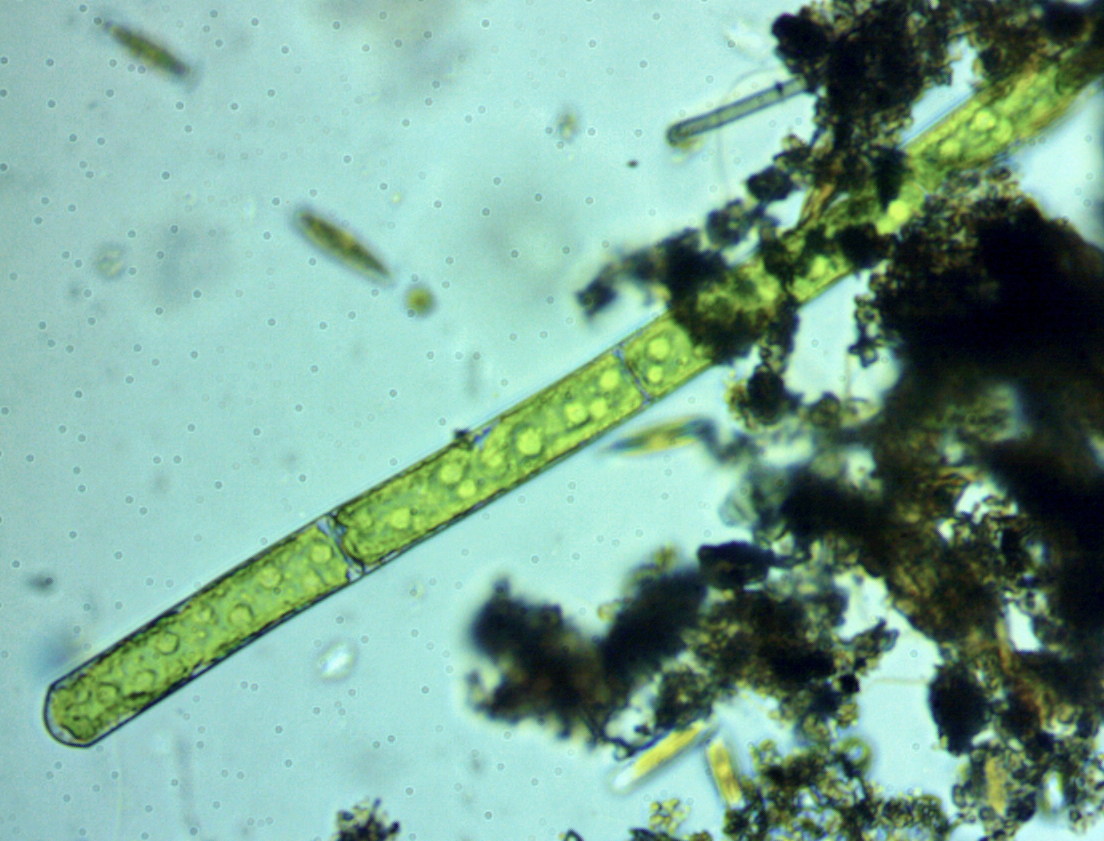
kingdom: Plantae
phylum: Charophyta
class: Zygnematophyceae
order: Zygnematales
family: Zygnemataceae
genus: Mougeotia
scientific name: Mougeotia
